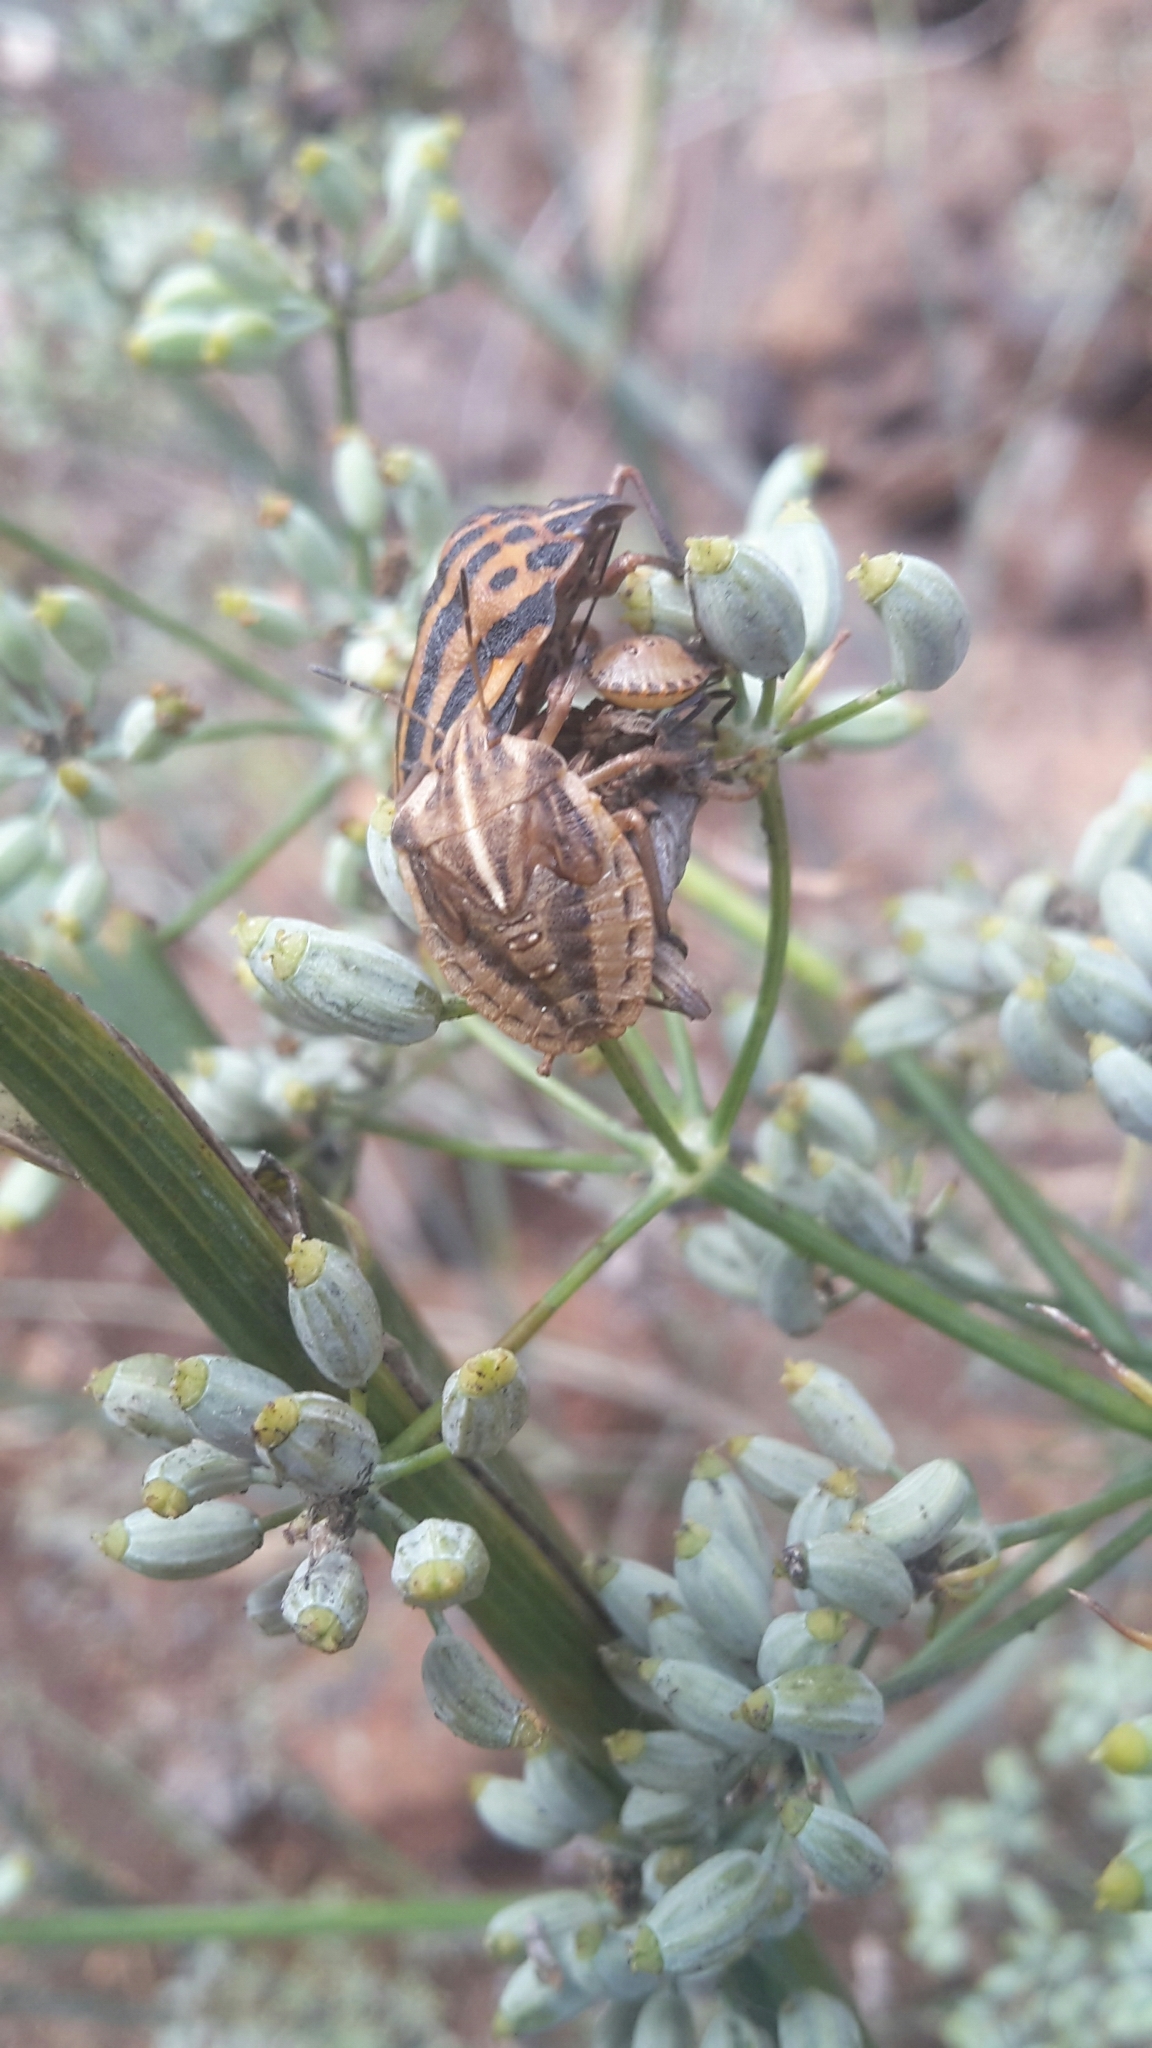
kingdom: Animalia
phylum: Arthropoda
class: Insecta
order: Hemiptera
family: Pentatomidae
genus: Graphosoma
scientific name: Graphosoma interruptum
